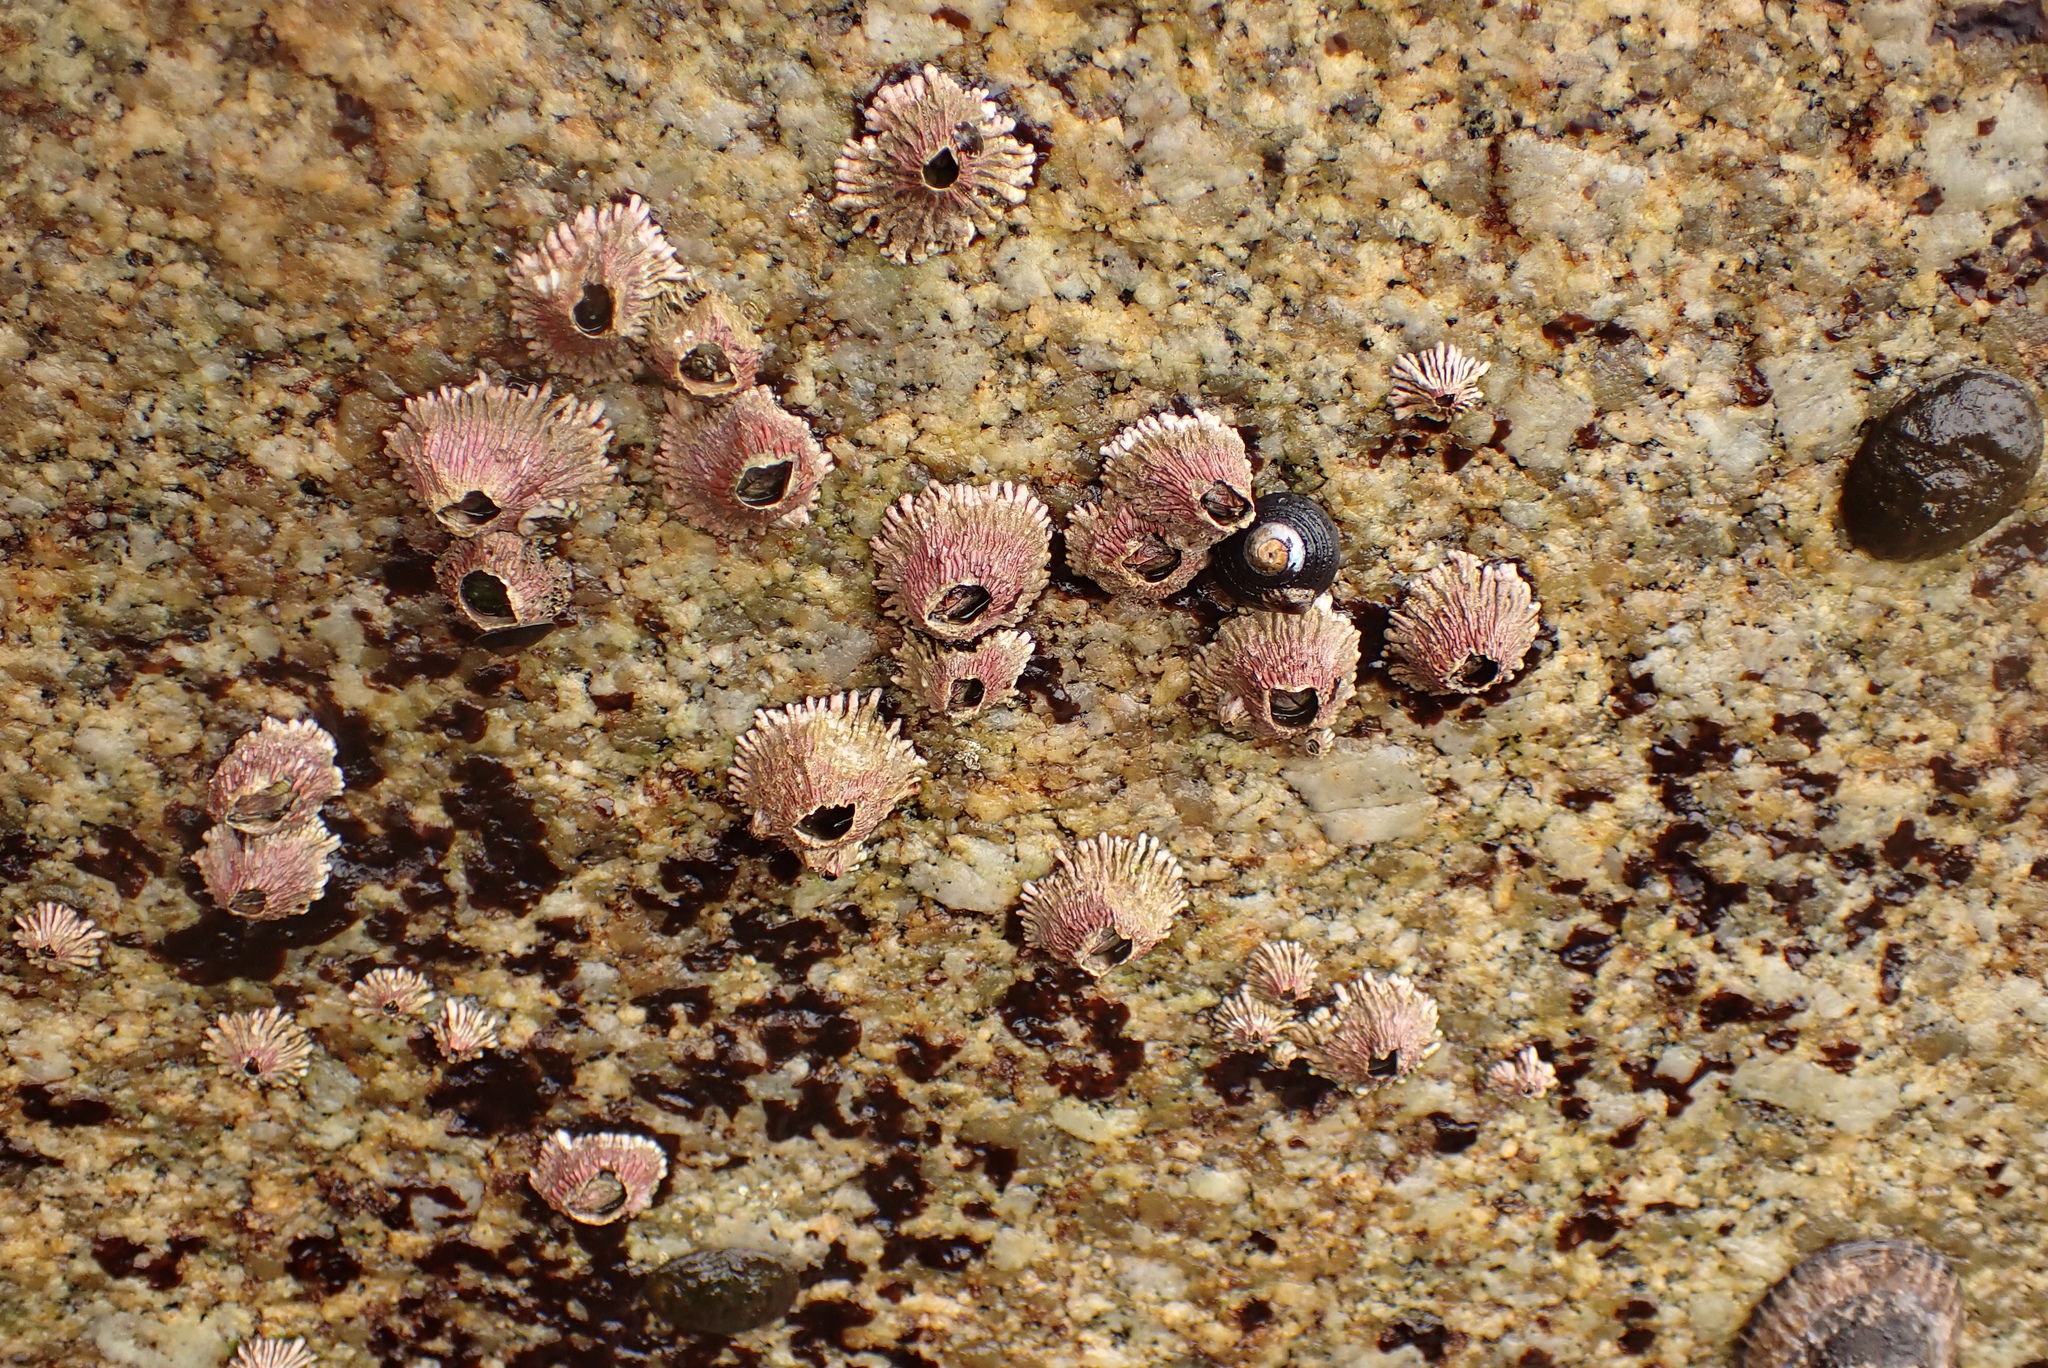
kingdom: Animalia
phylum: Arthropoda
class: Maxillopoda
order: Sessilia
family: Tetraclitidae
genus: Tetraclita
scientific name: Tetraclita rubescens
